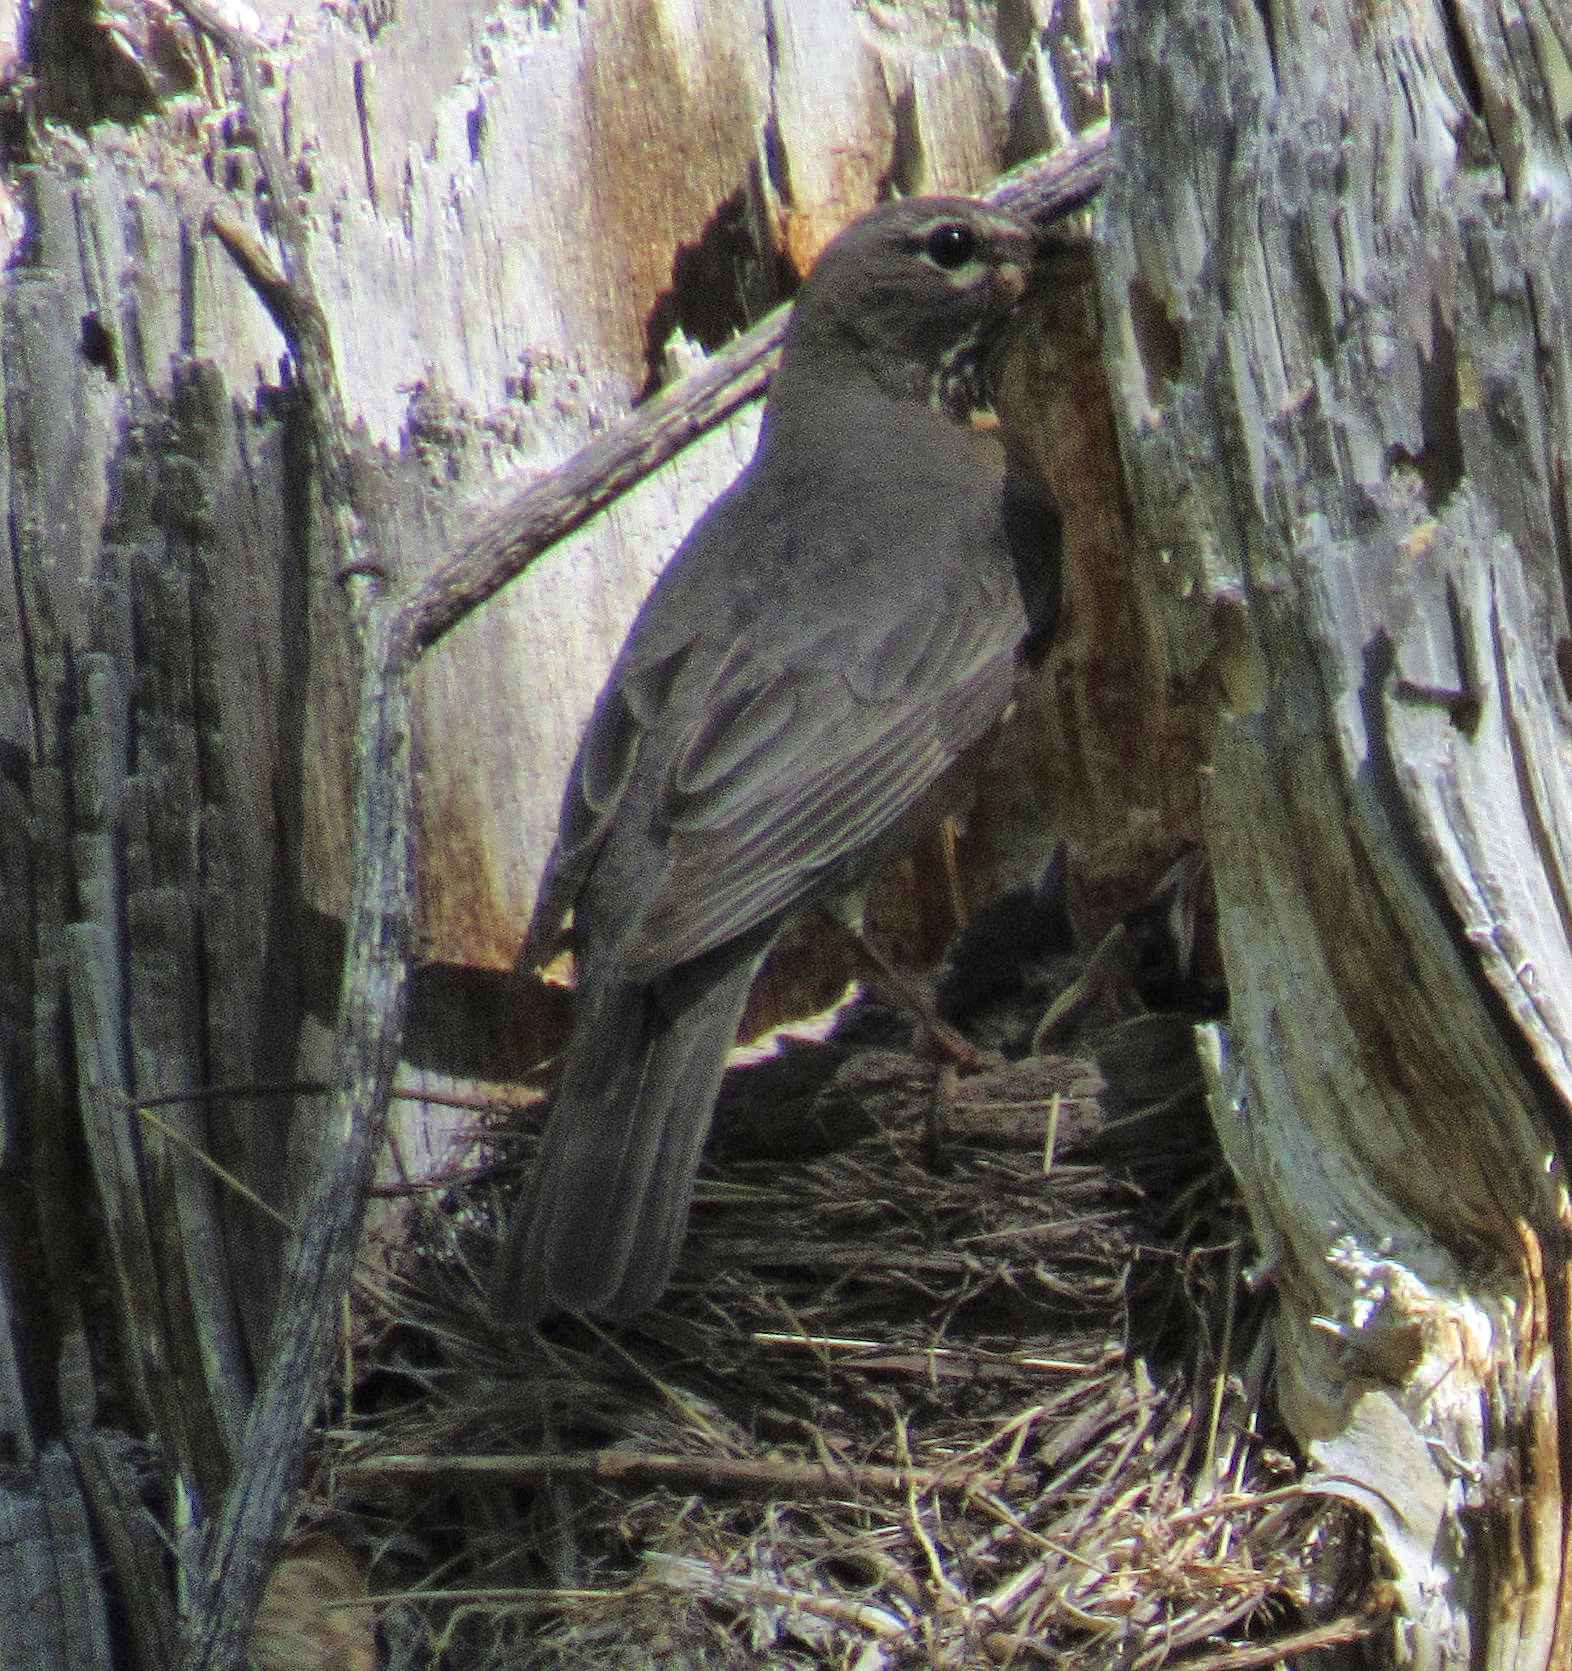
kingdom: Animalia
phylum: Chordata
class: Aves
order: Passeriformes
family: Turdidae
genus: Turdus
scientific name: Turdus migratorius
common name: American robin
